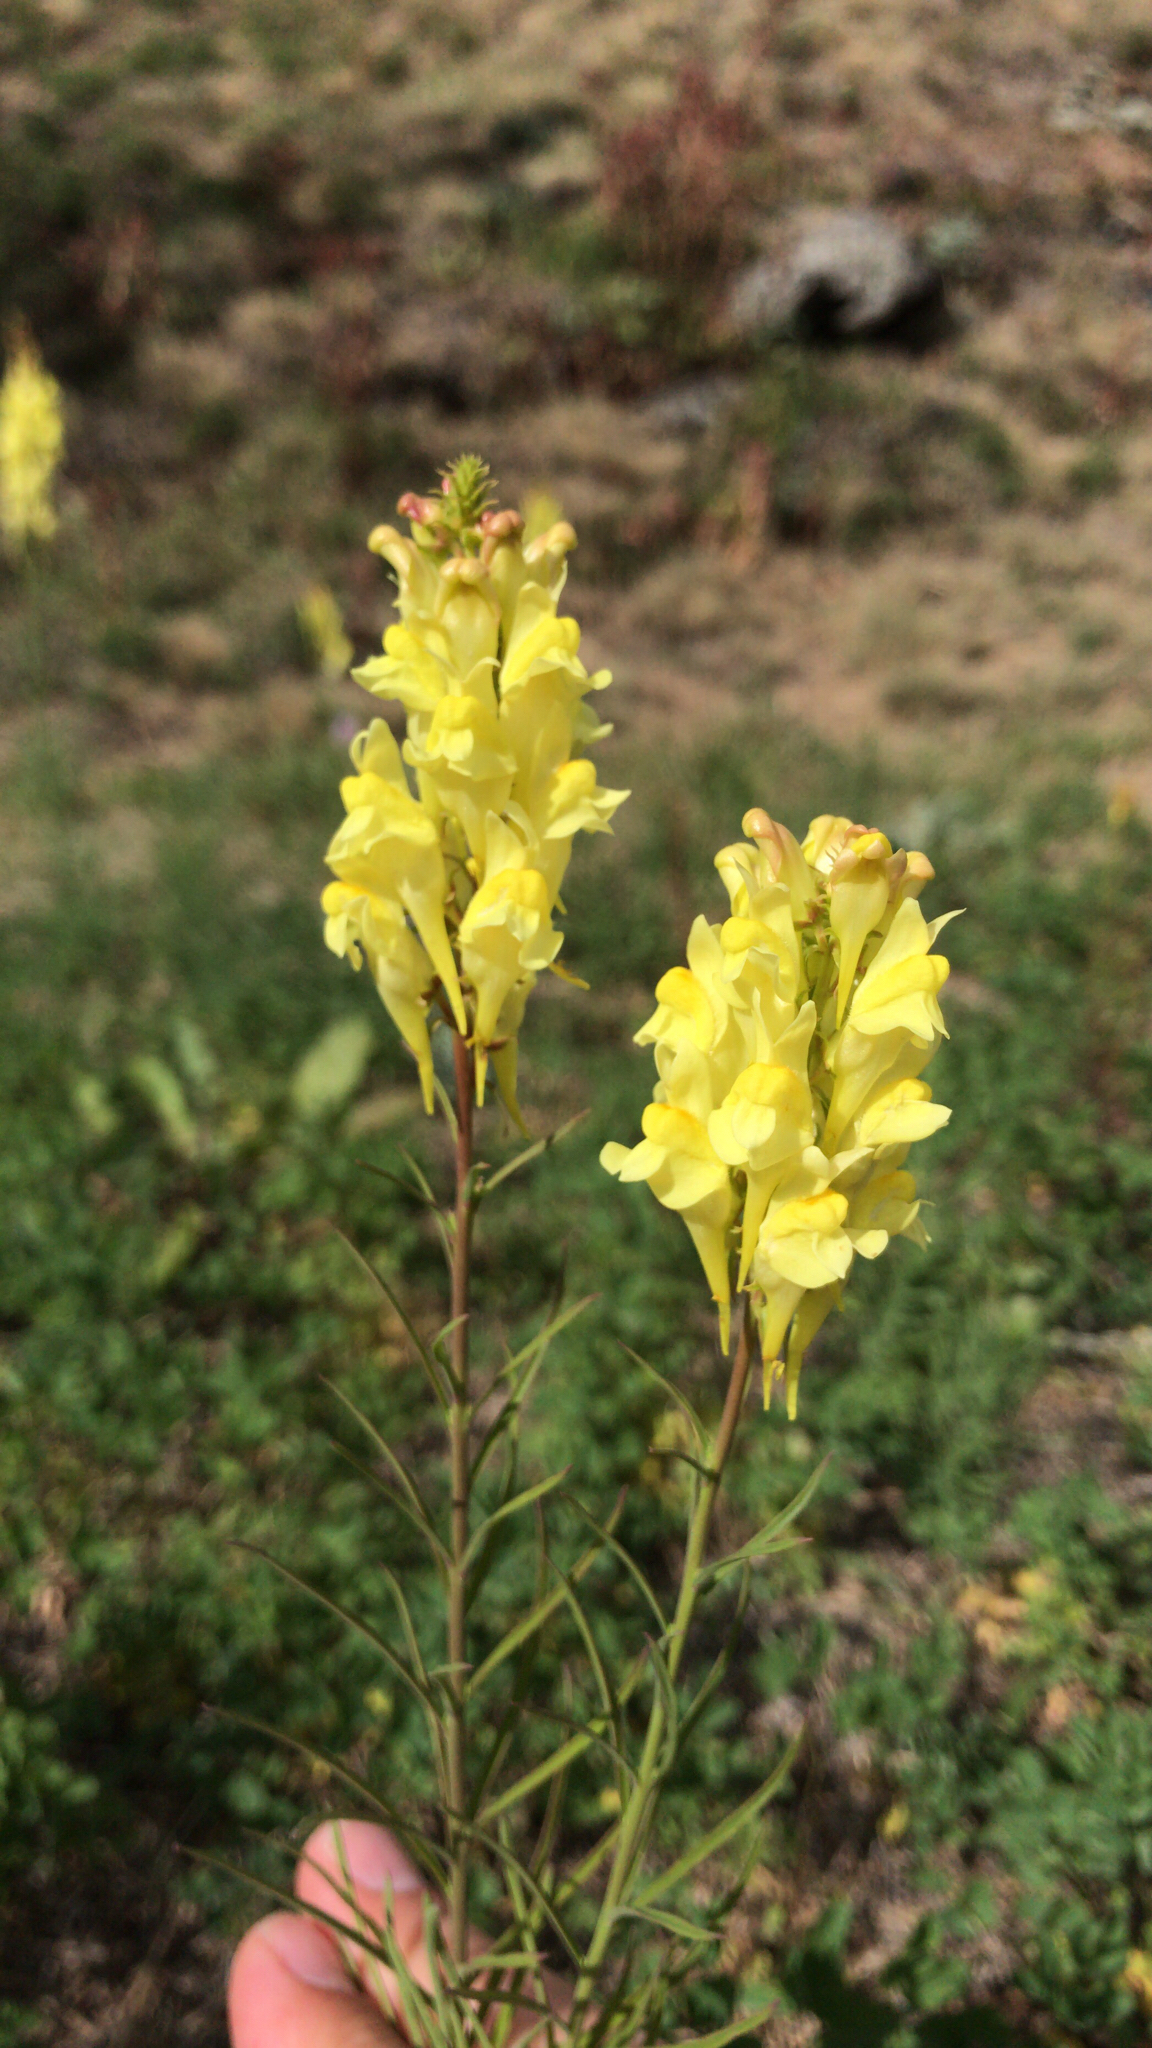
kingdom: Plantae
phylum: Tracheophyta
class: Magnoliopsida
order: Lamiales
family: Plantaginaceae
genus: Linaria
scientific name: Linaria vulgaris
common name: Butter and eggs
